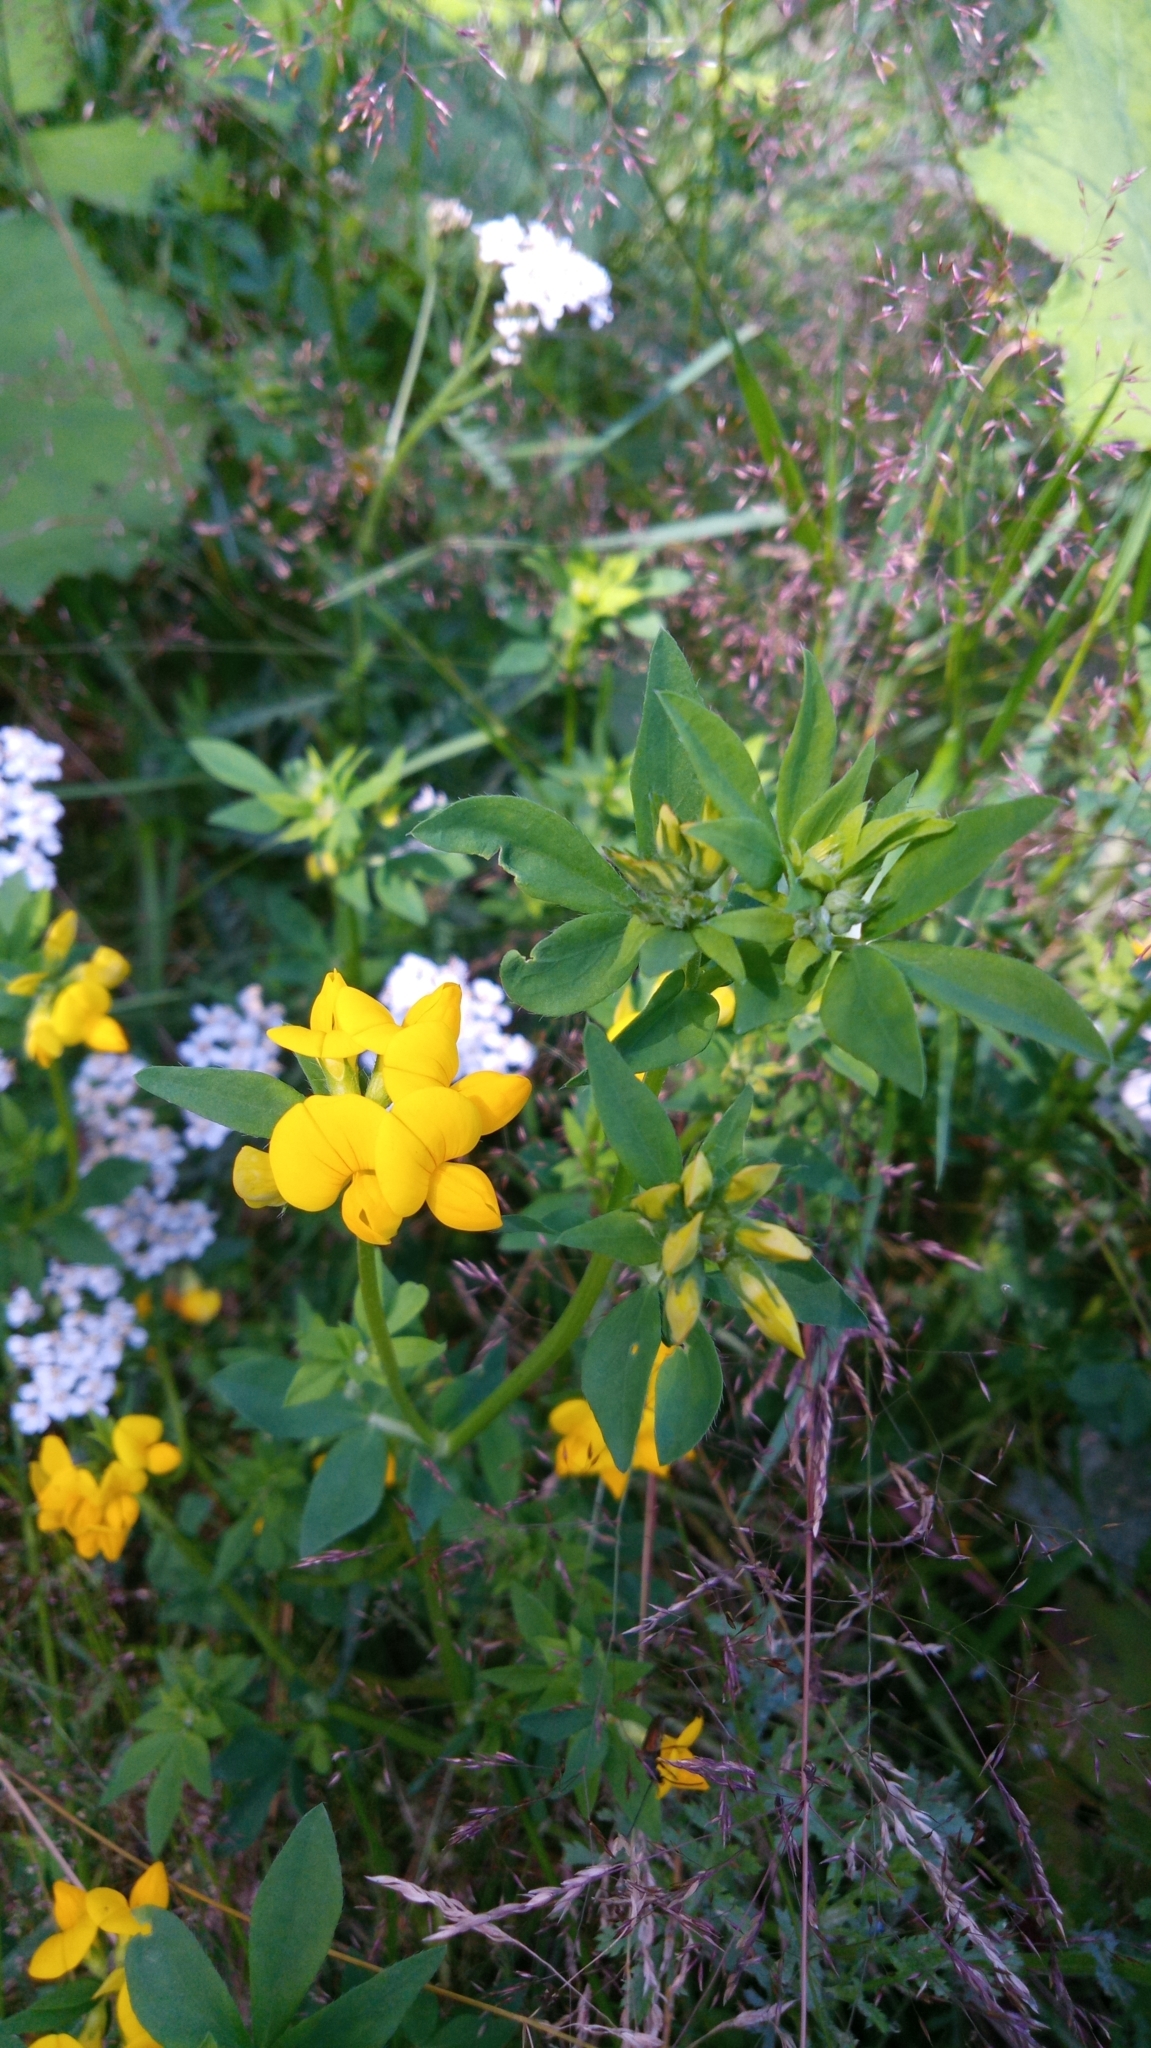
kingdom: Plantae
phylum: Tracheophyta
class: Magnoliopsida
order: Fabales
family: Fabaceae
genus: Lotus
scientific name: Lotus corniculatus
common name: Common bird's-foot-trefoil
